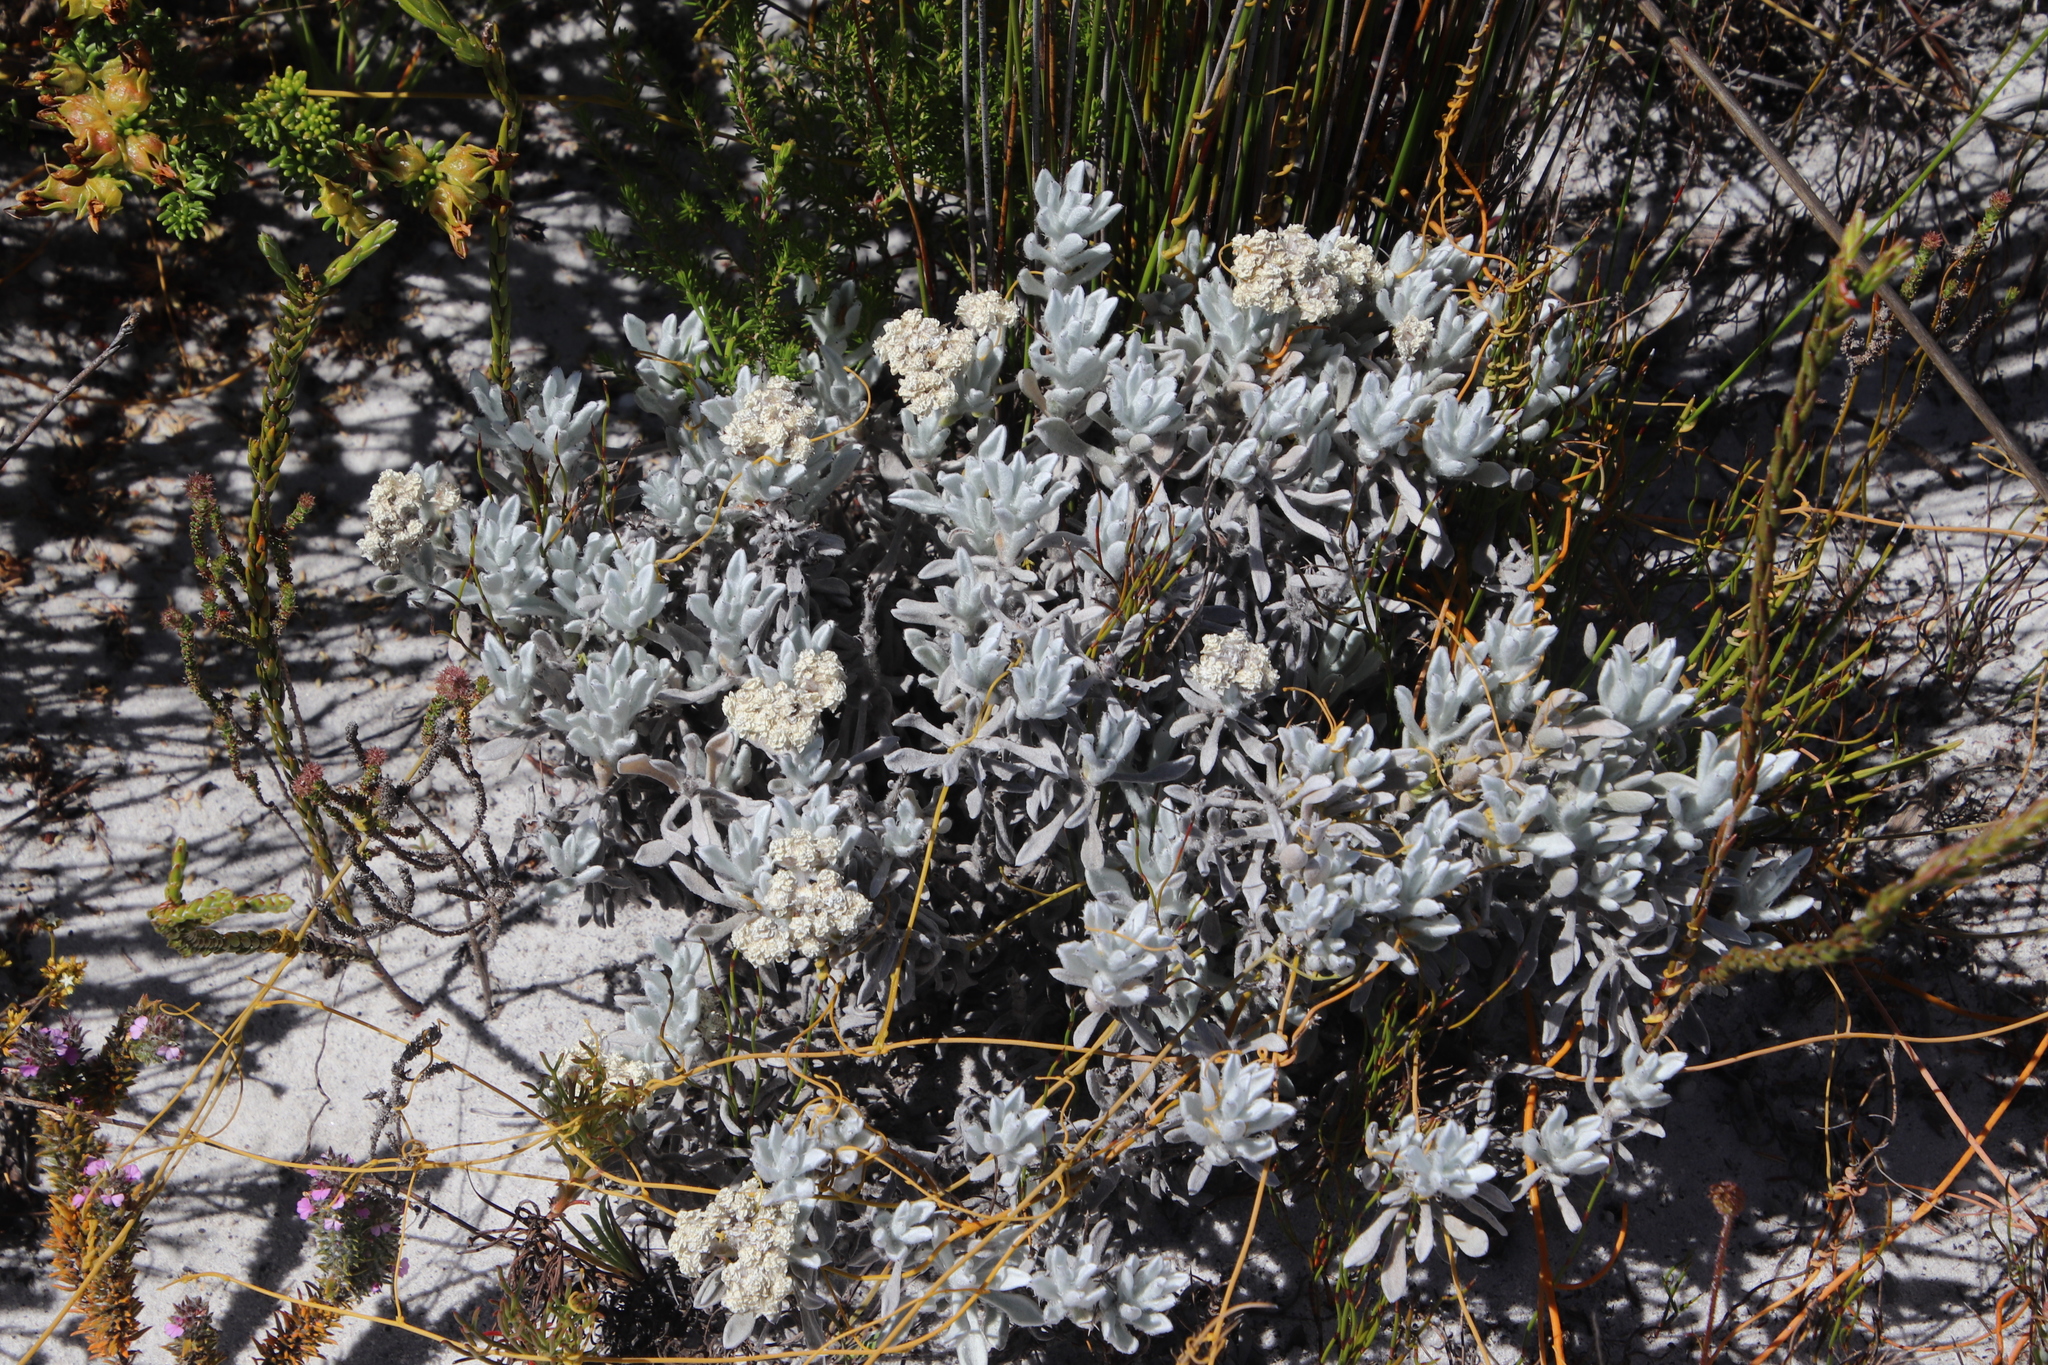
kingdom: Plantae
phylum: Tracheophyta
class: Magnoliopsida
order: Asterales
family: Asteraceae
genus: Petalacte
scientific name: Petalacte coronata
